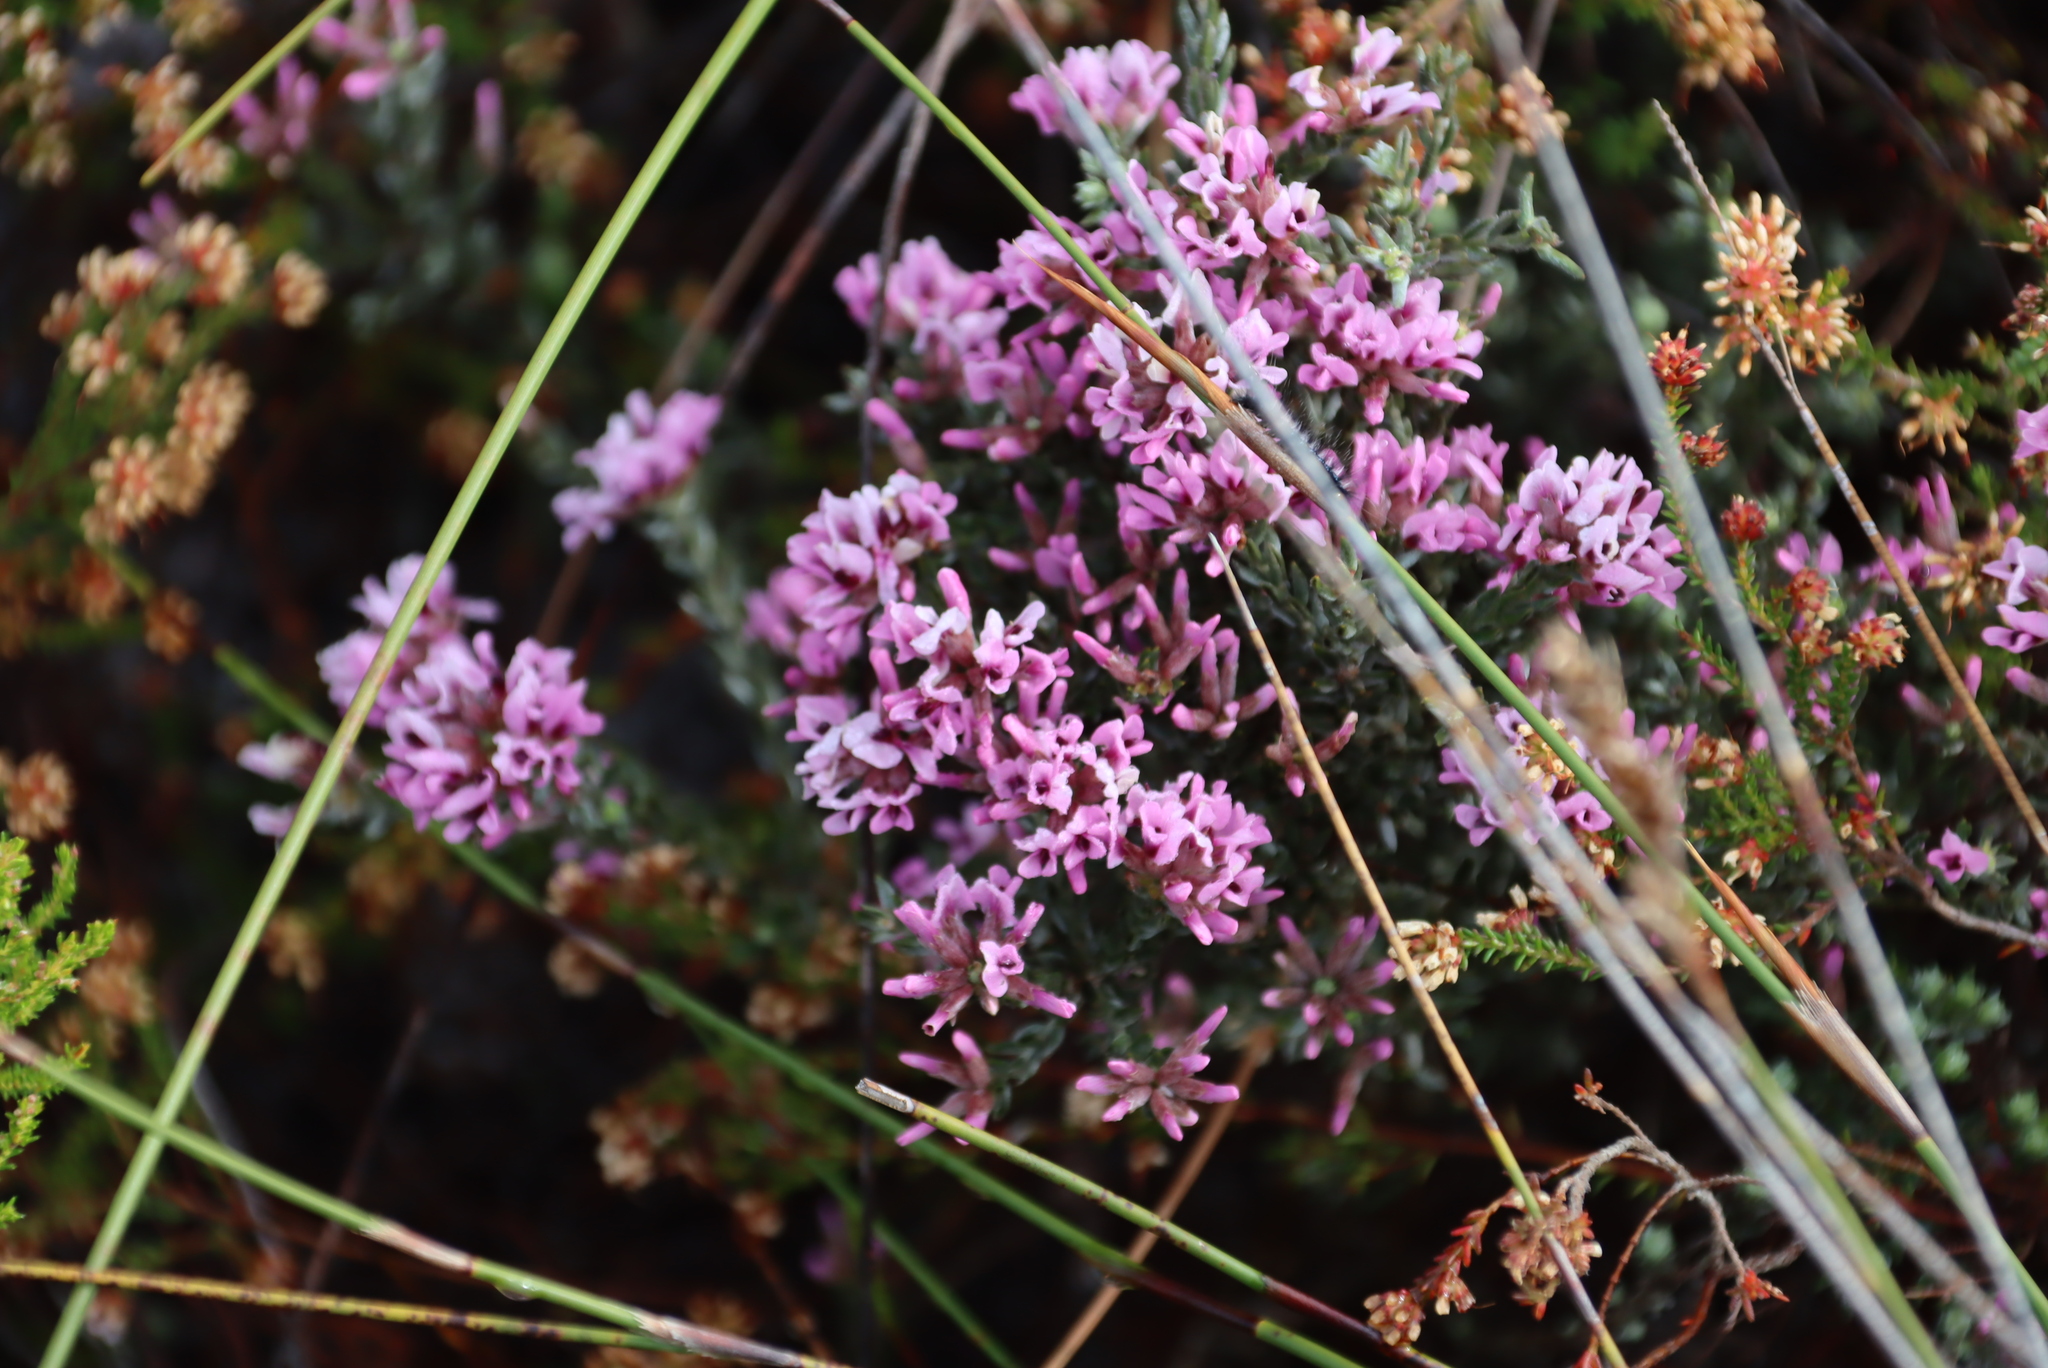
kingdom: Plantae
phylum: Tracheophyta
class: Magnoliopsida
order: Fabales
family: Fabaceae
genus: Amphithalea
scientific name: Amphithalea ericifolia
